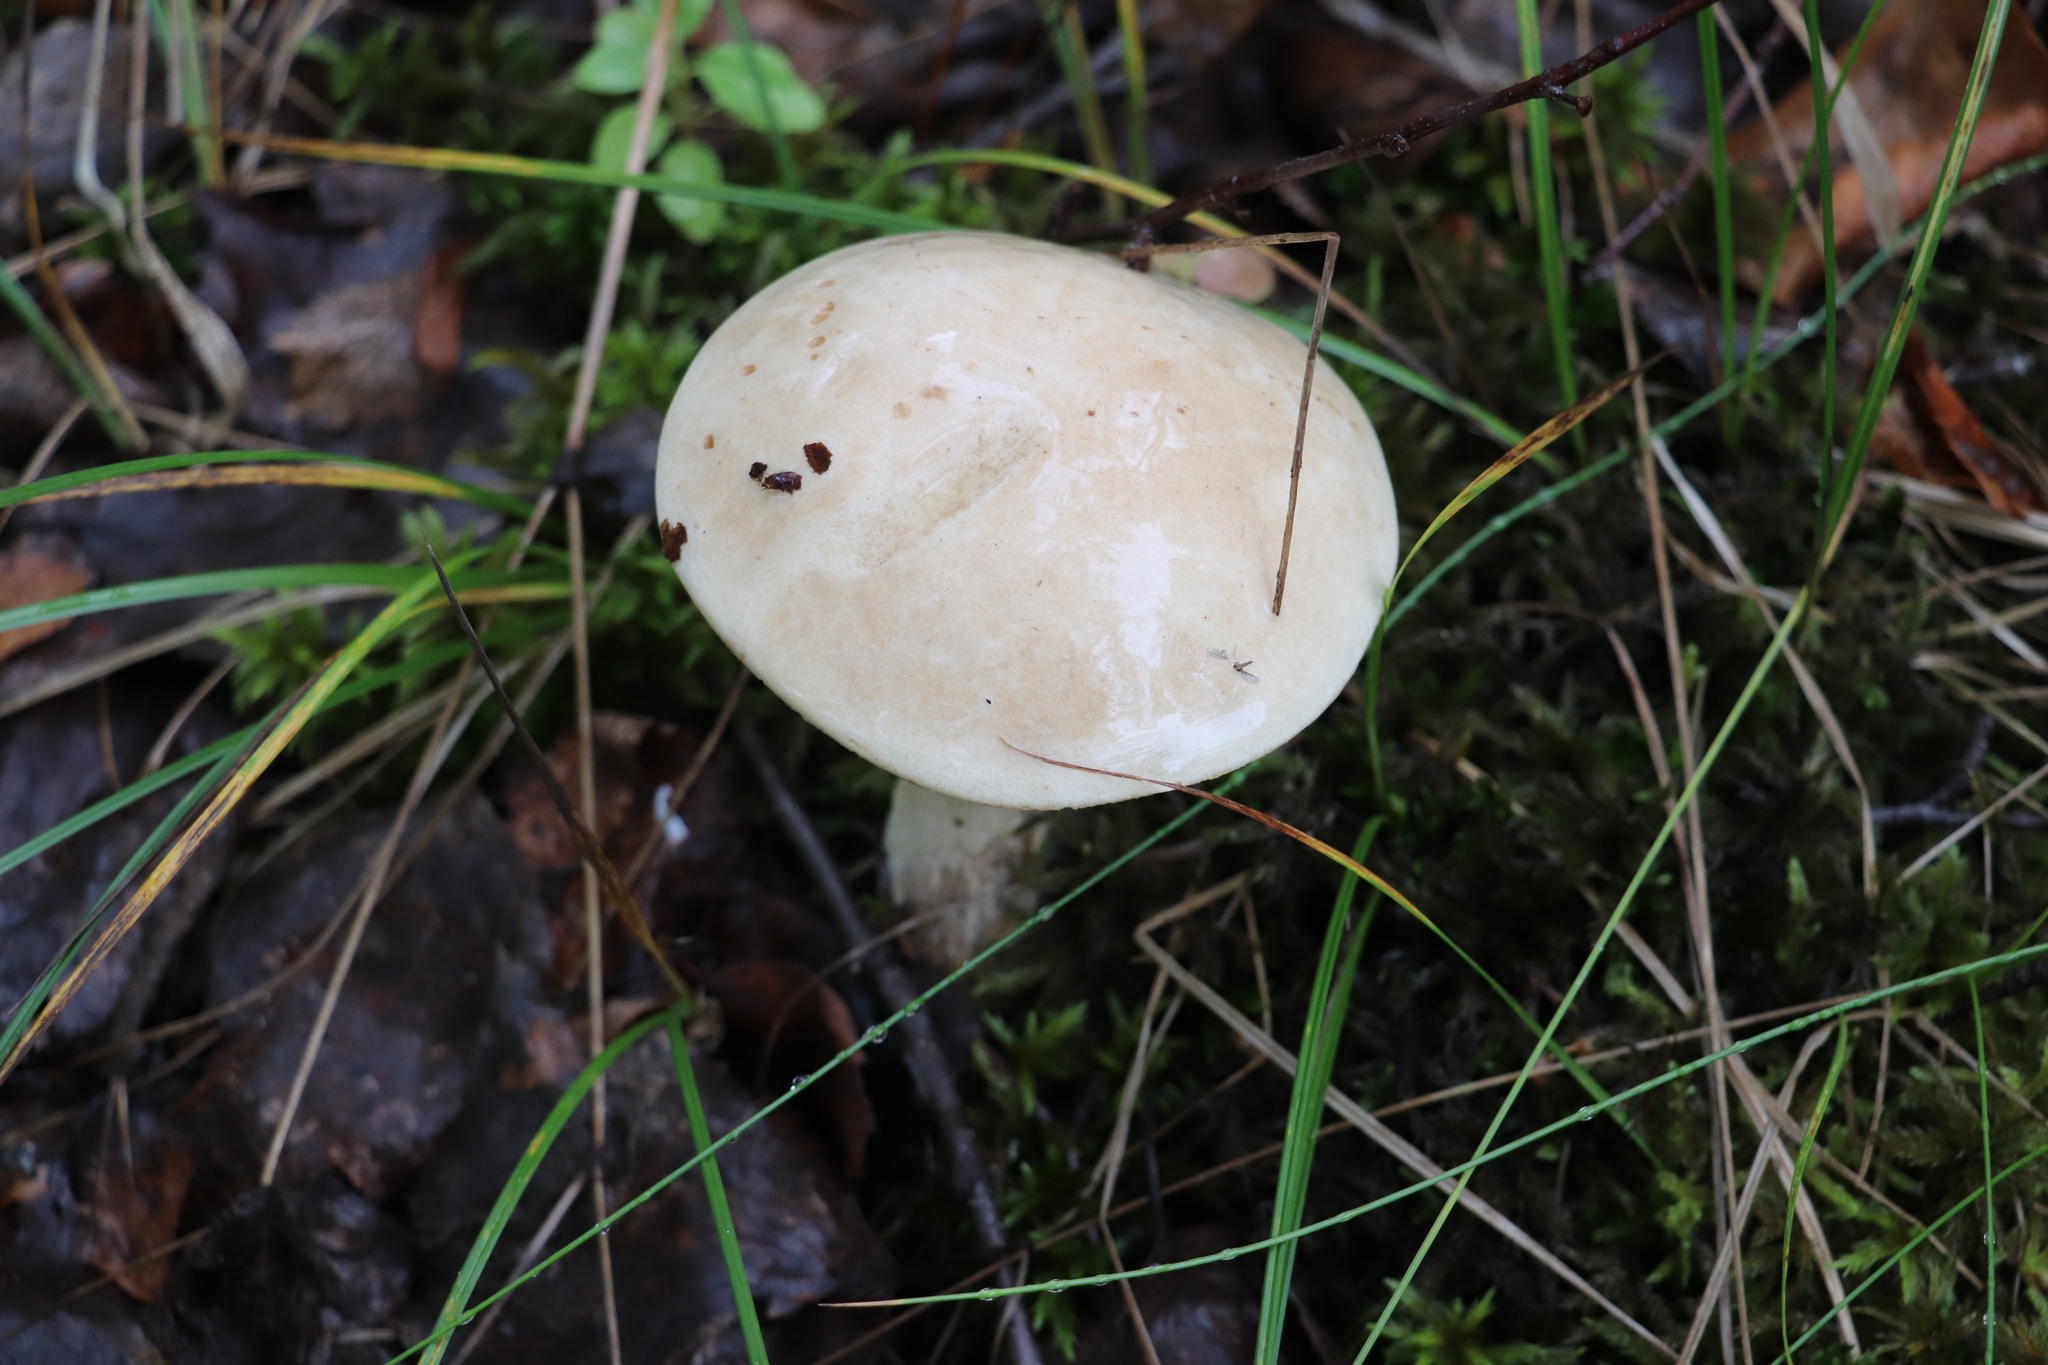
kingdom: Fungi
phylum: Basidiomycota
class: Agaricomycetes
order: Boletales
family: Boletaceae
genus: Leccinum
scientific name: Leccinum holopus
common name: Ghost bolete
